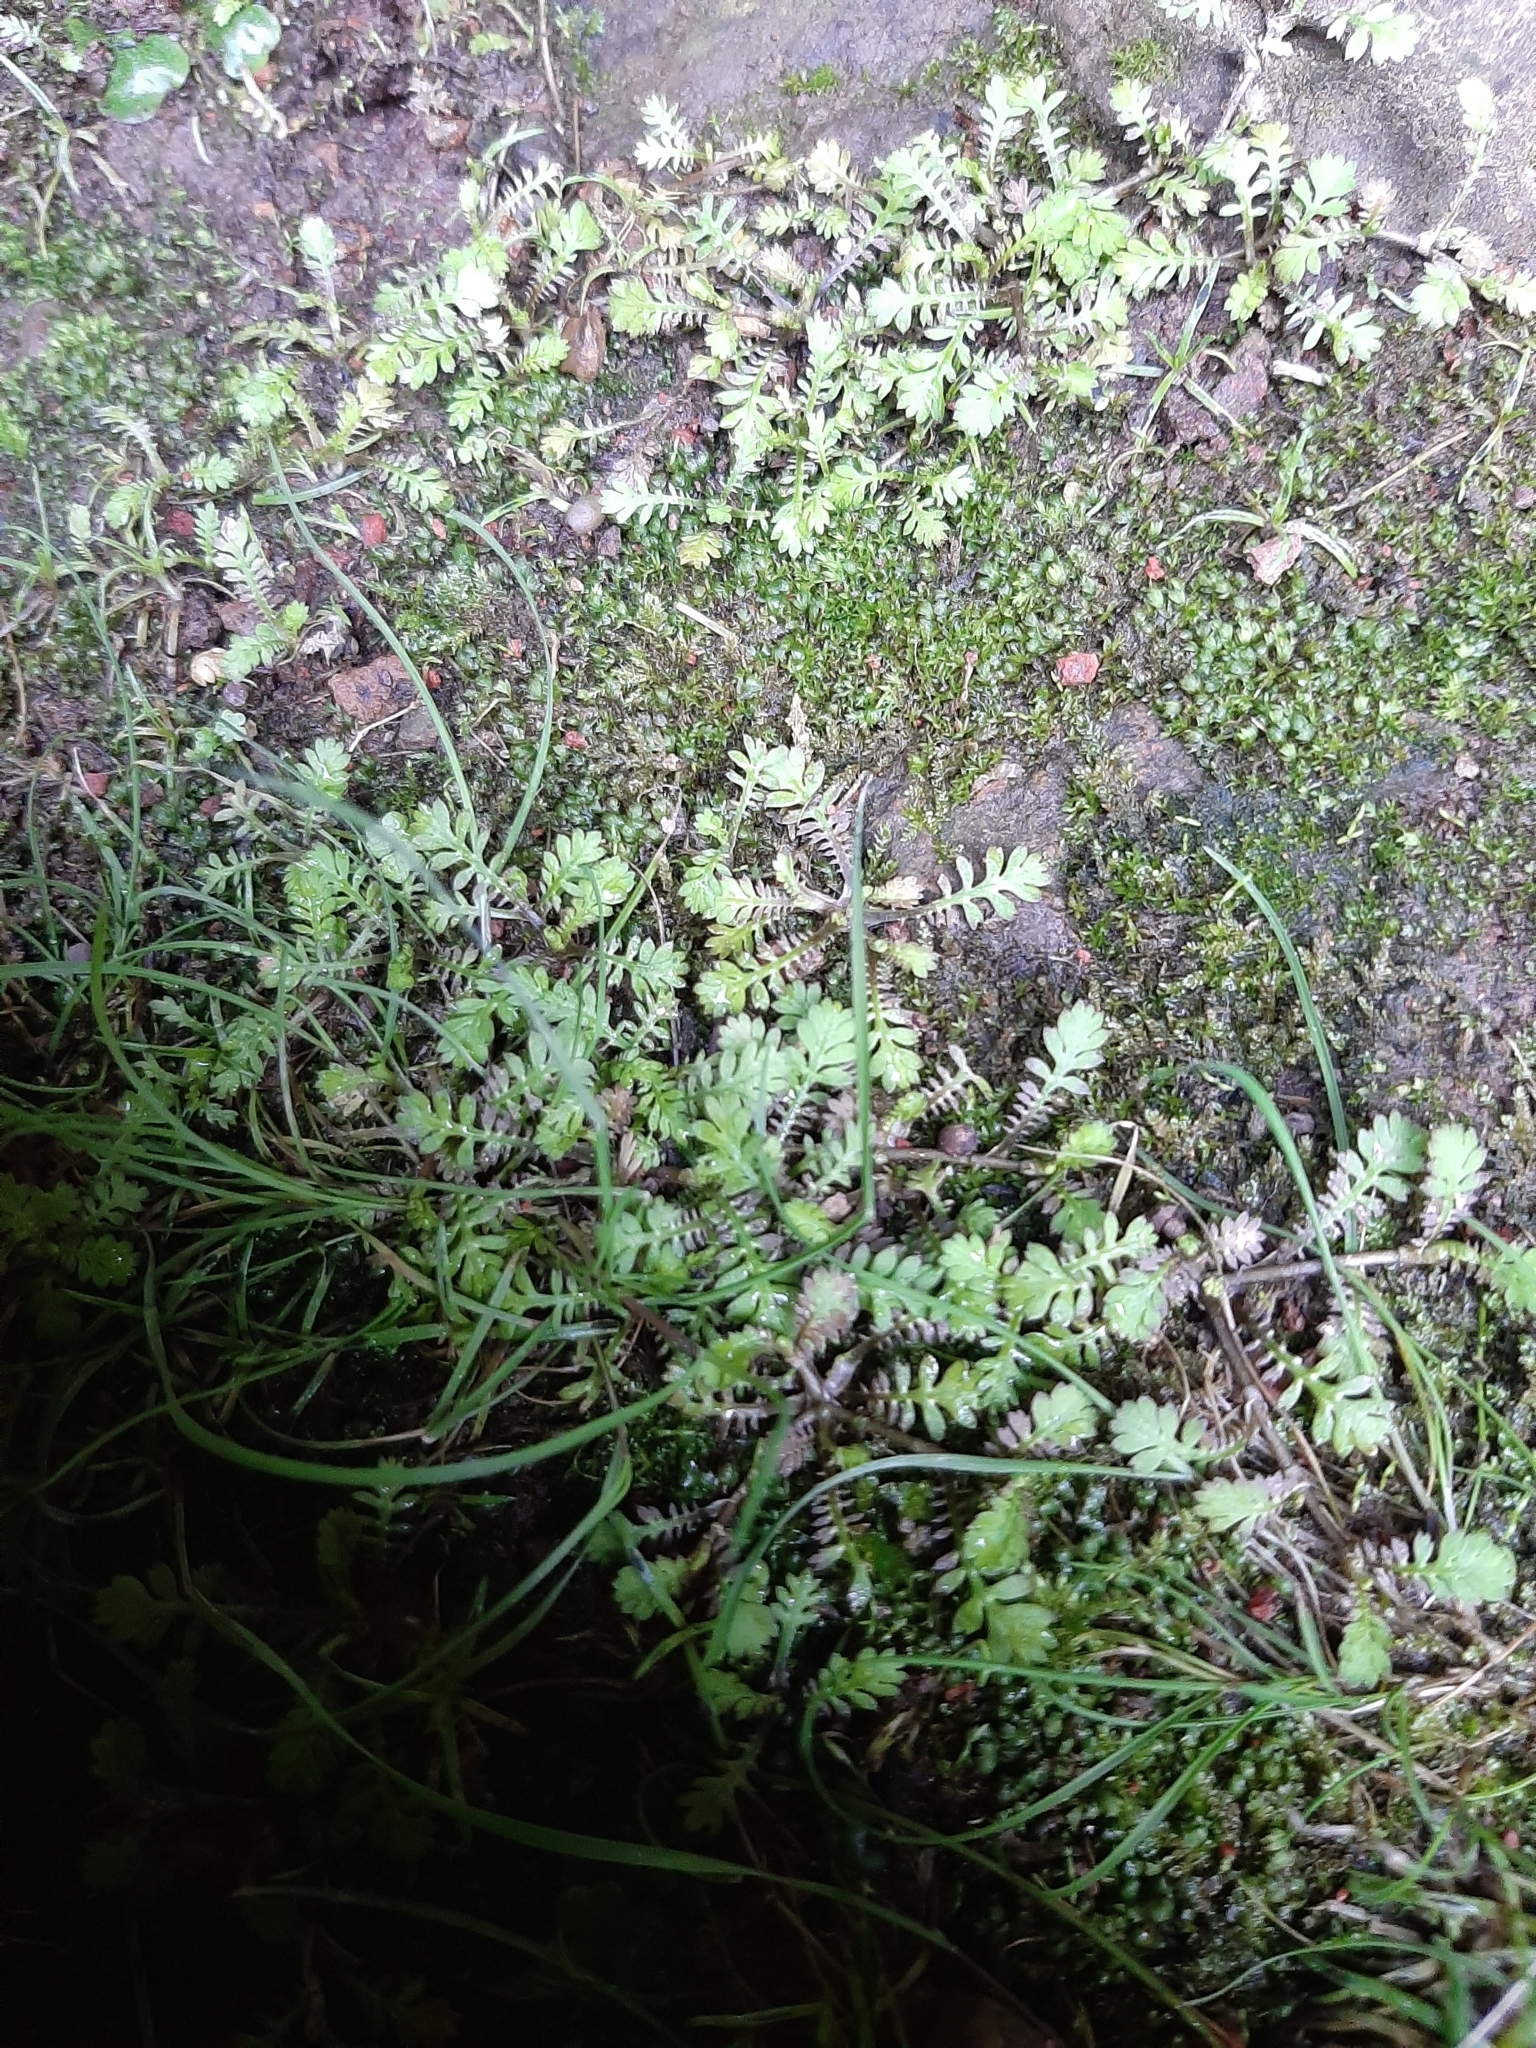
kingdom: Plantae
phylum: Tracheophyta
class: Magnoliopsida
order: Asterales
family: Asteraceae
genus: Leptinella
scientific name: Leptinella nana
